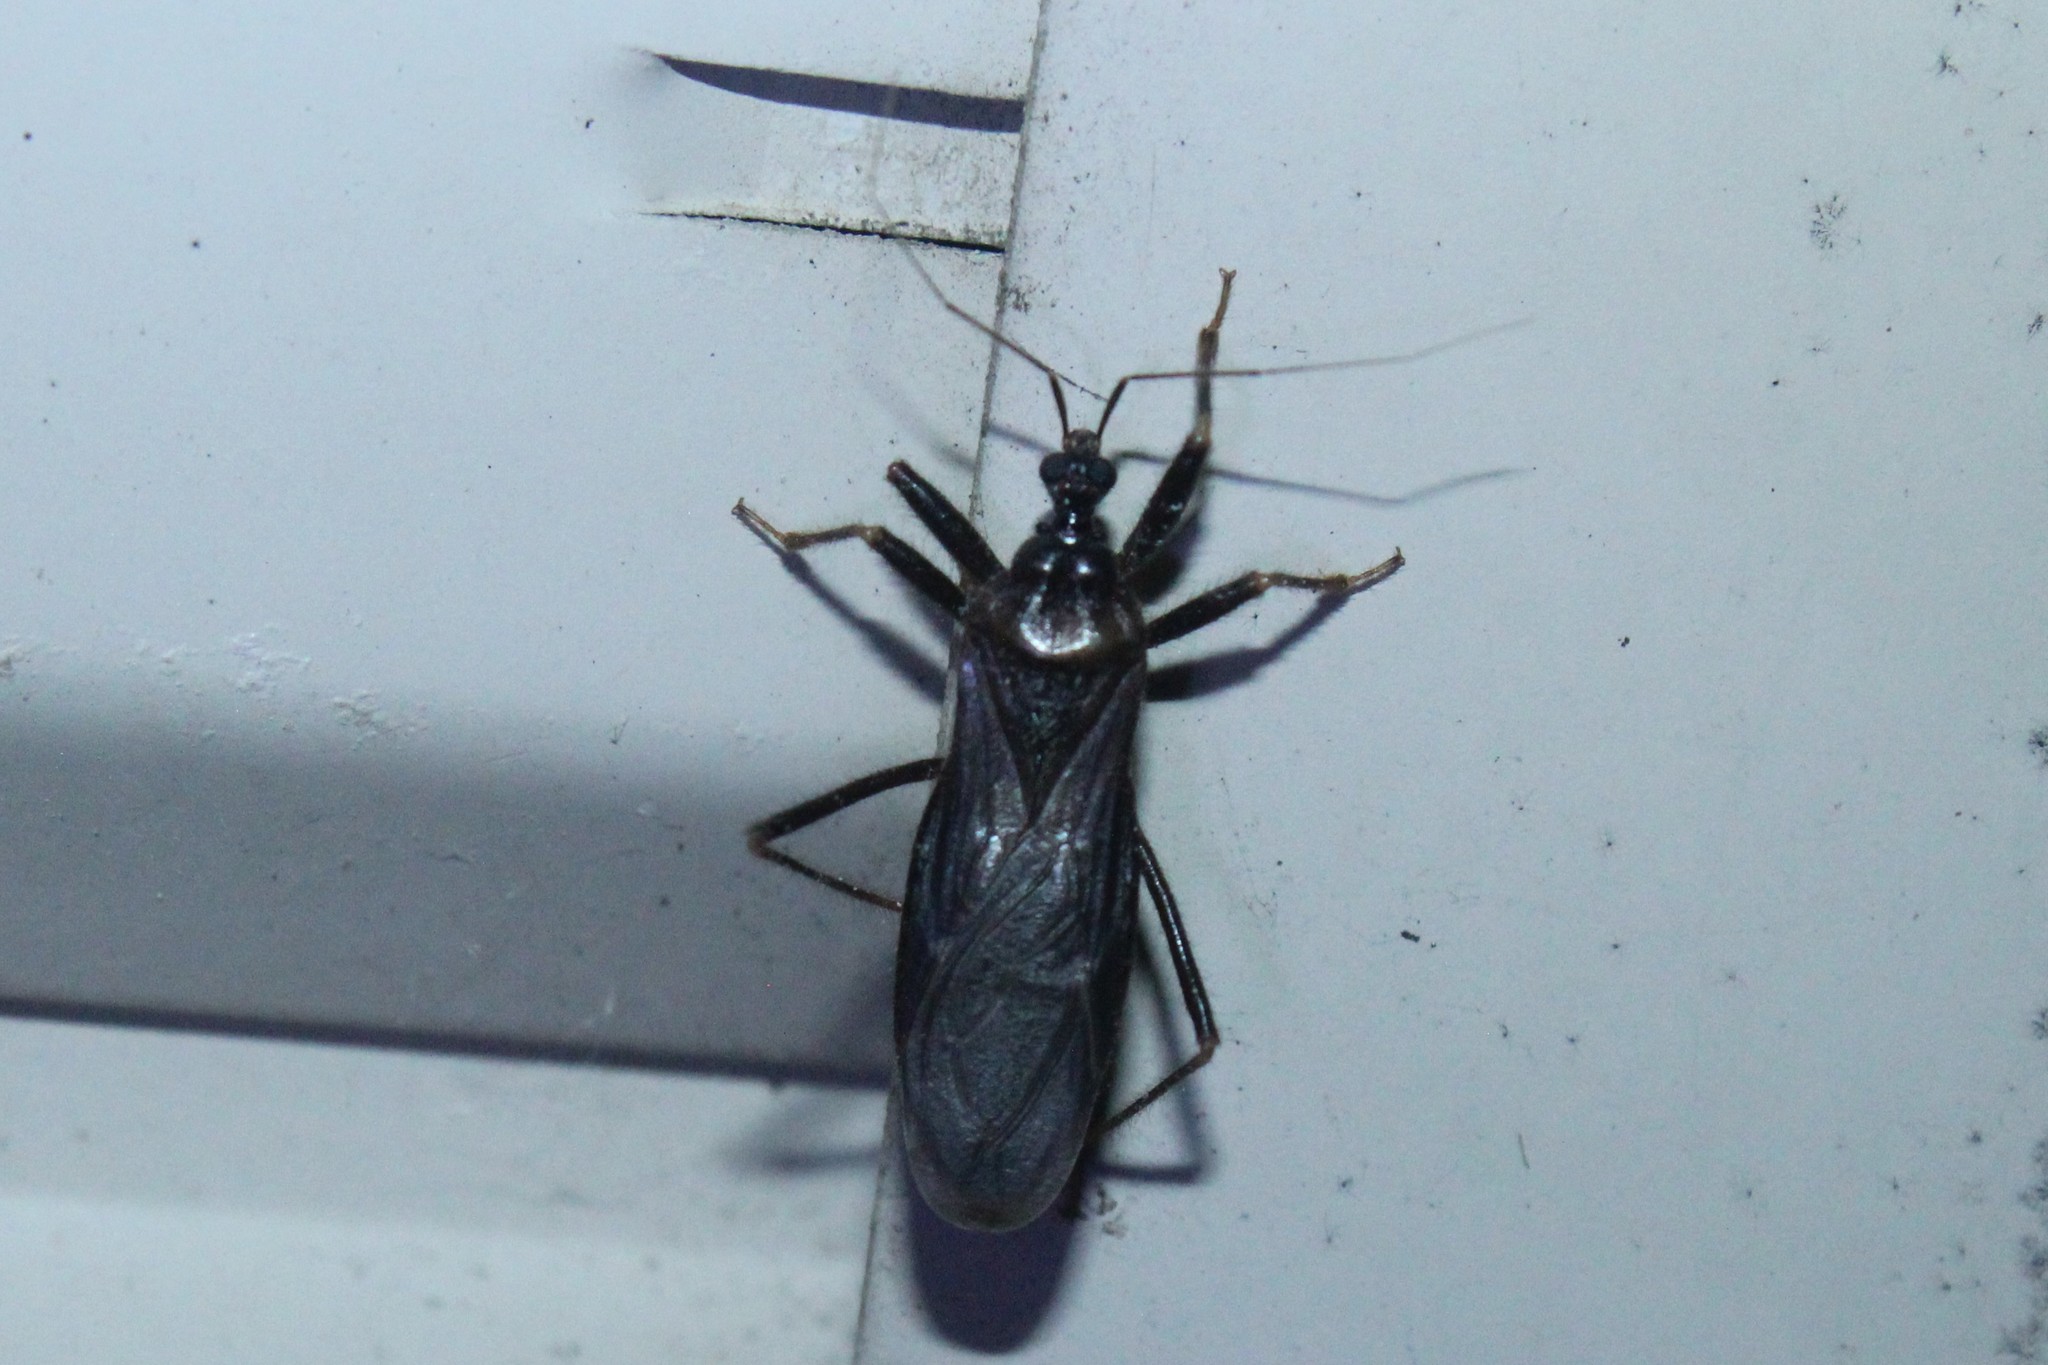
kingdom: Animalia
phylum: Arthropoda
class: Insecta
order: Hemiptera
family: Reduviidae
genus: Reduvius
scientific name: Reduvius personatus
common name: Masked hunter
